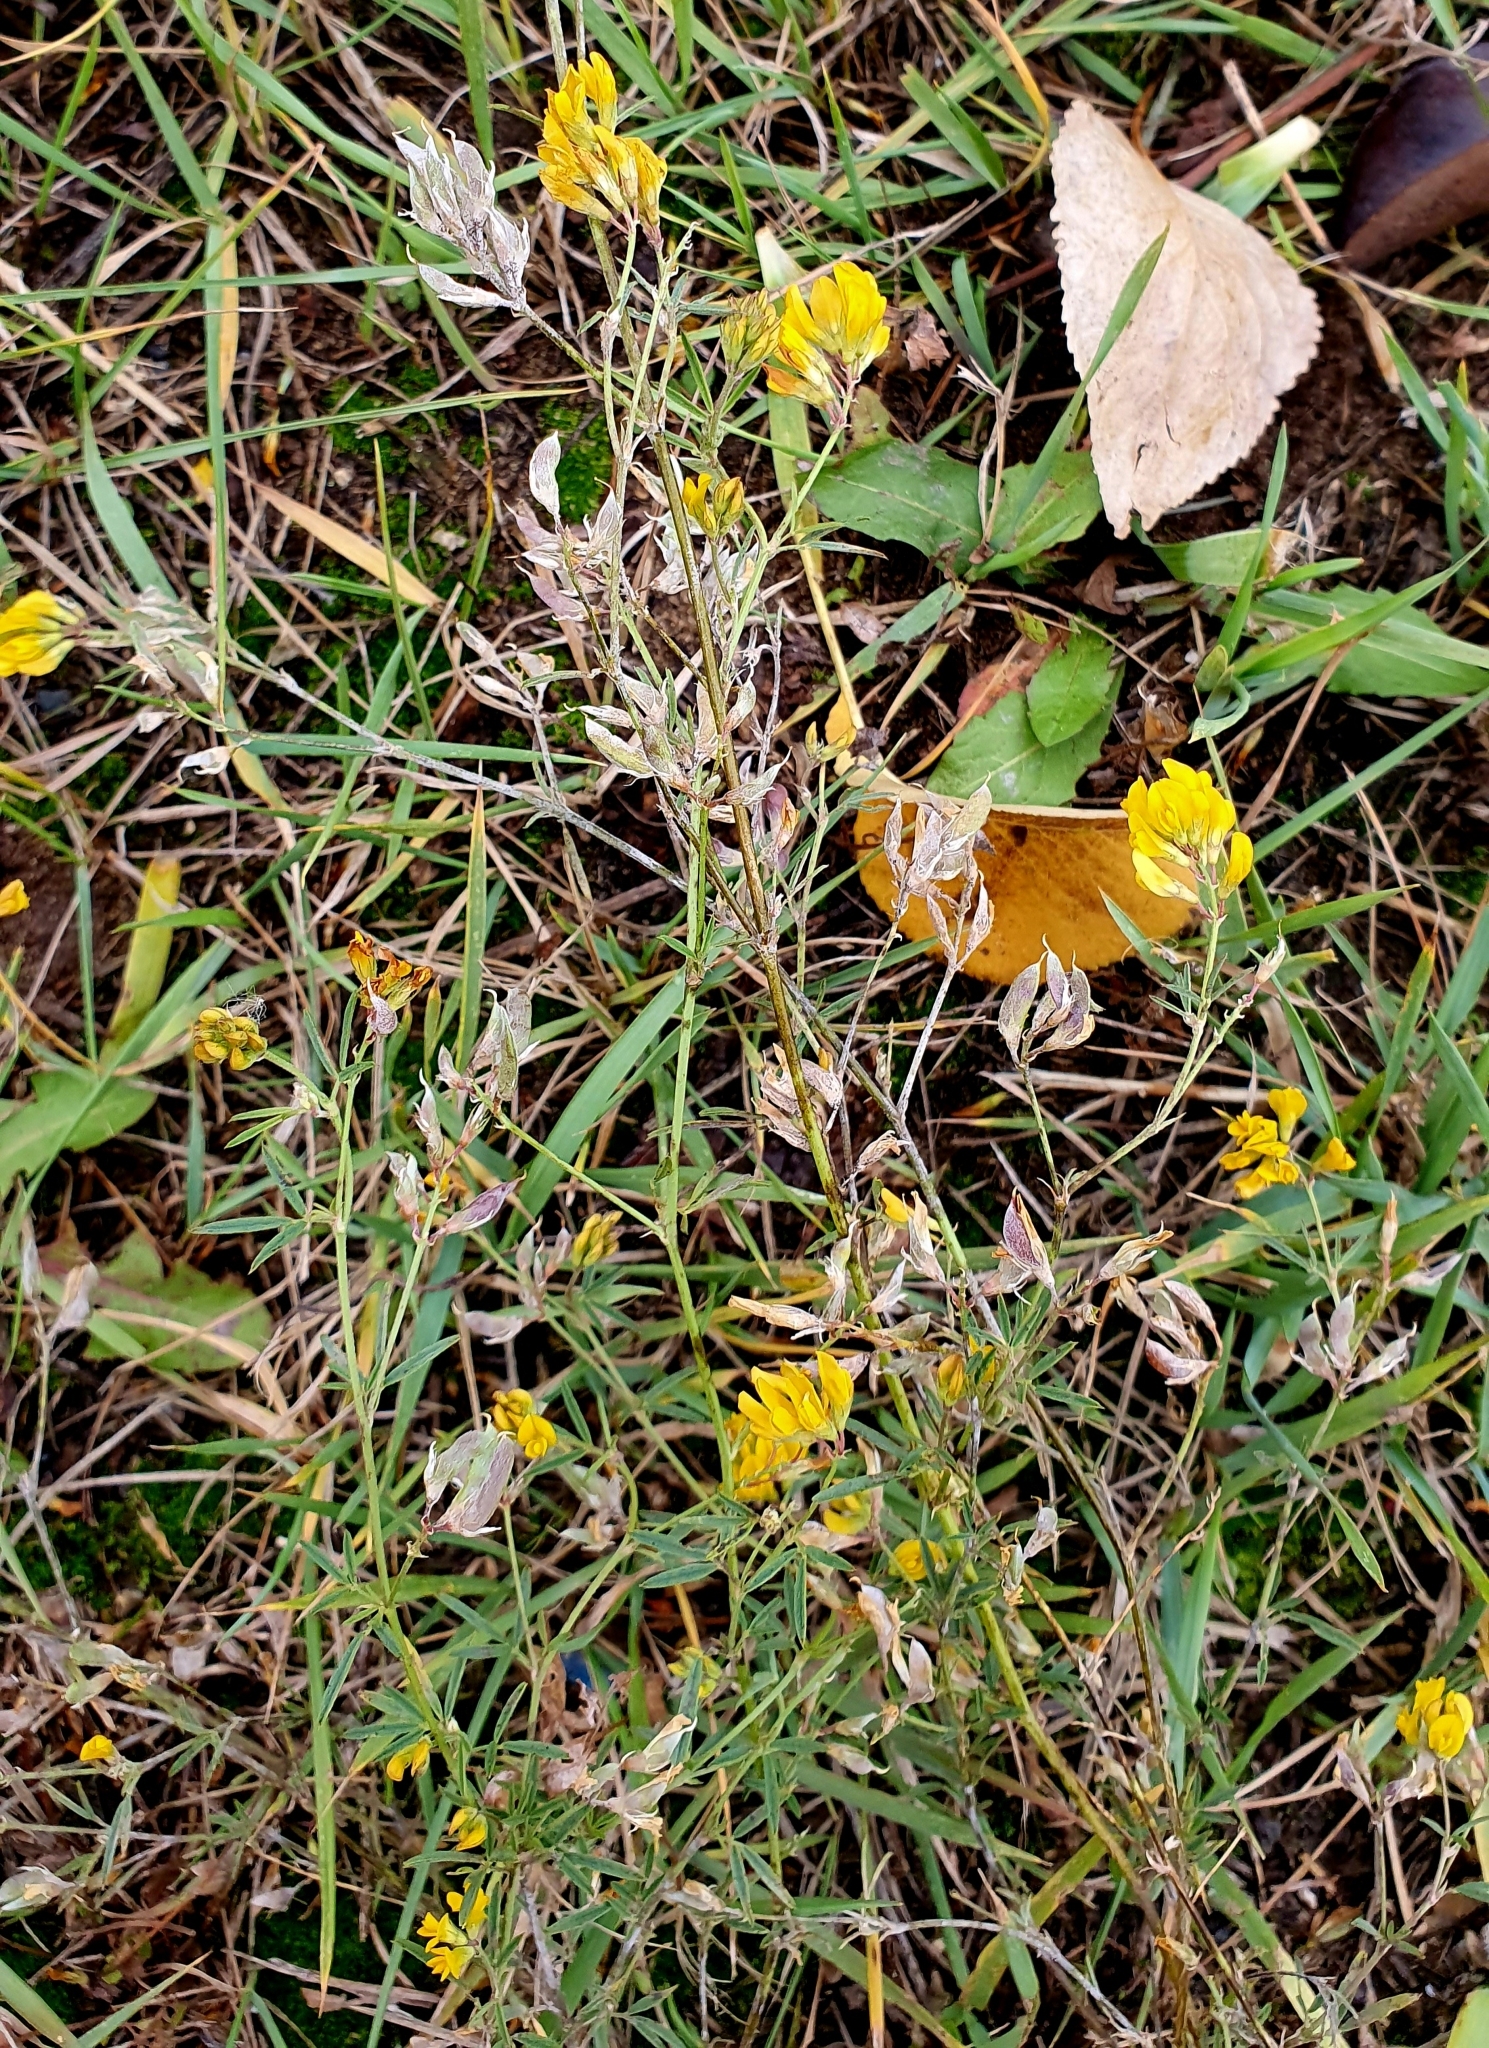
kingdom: Plantae
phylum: Tracheophyta
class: Magnoliopsida
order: Fabales
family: Fabaceae
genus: Medicago
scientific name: Medicago falcata
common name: Sickle medick
